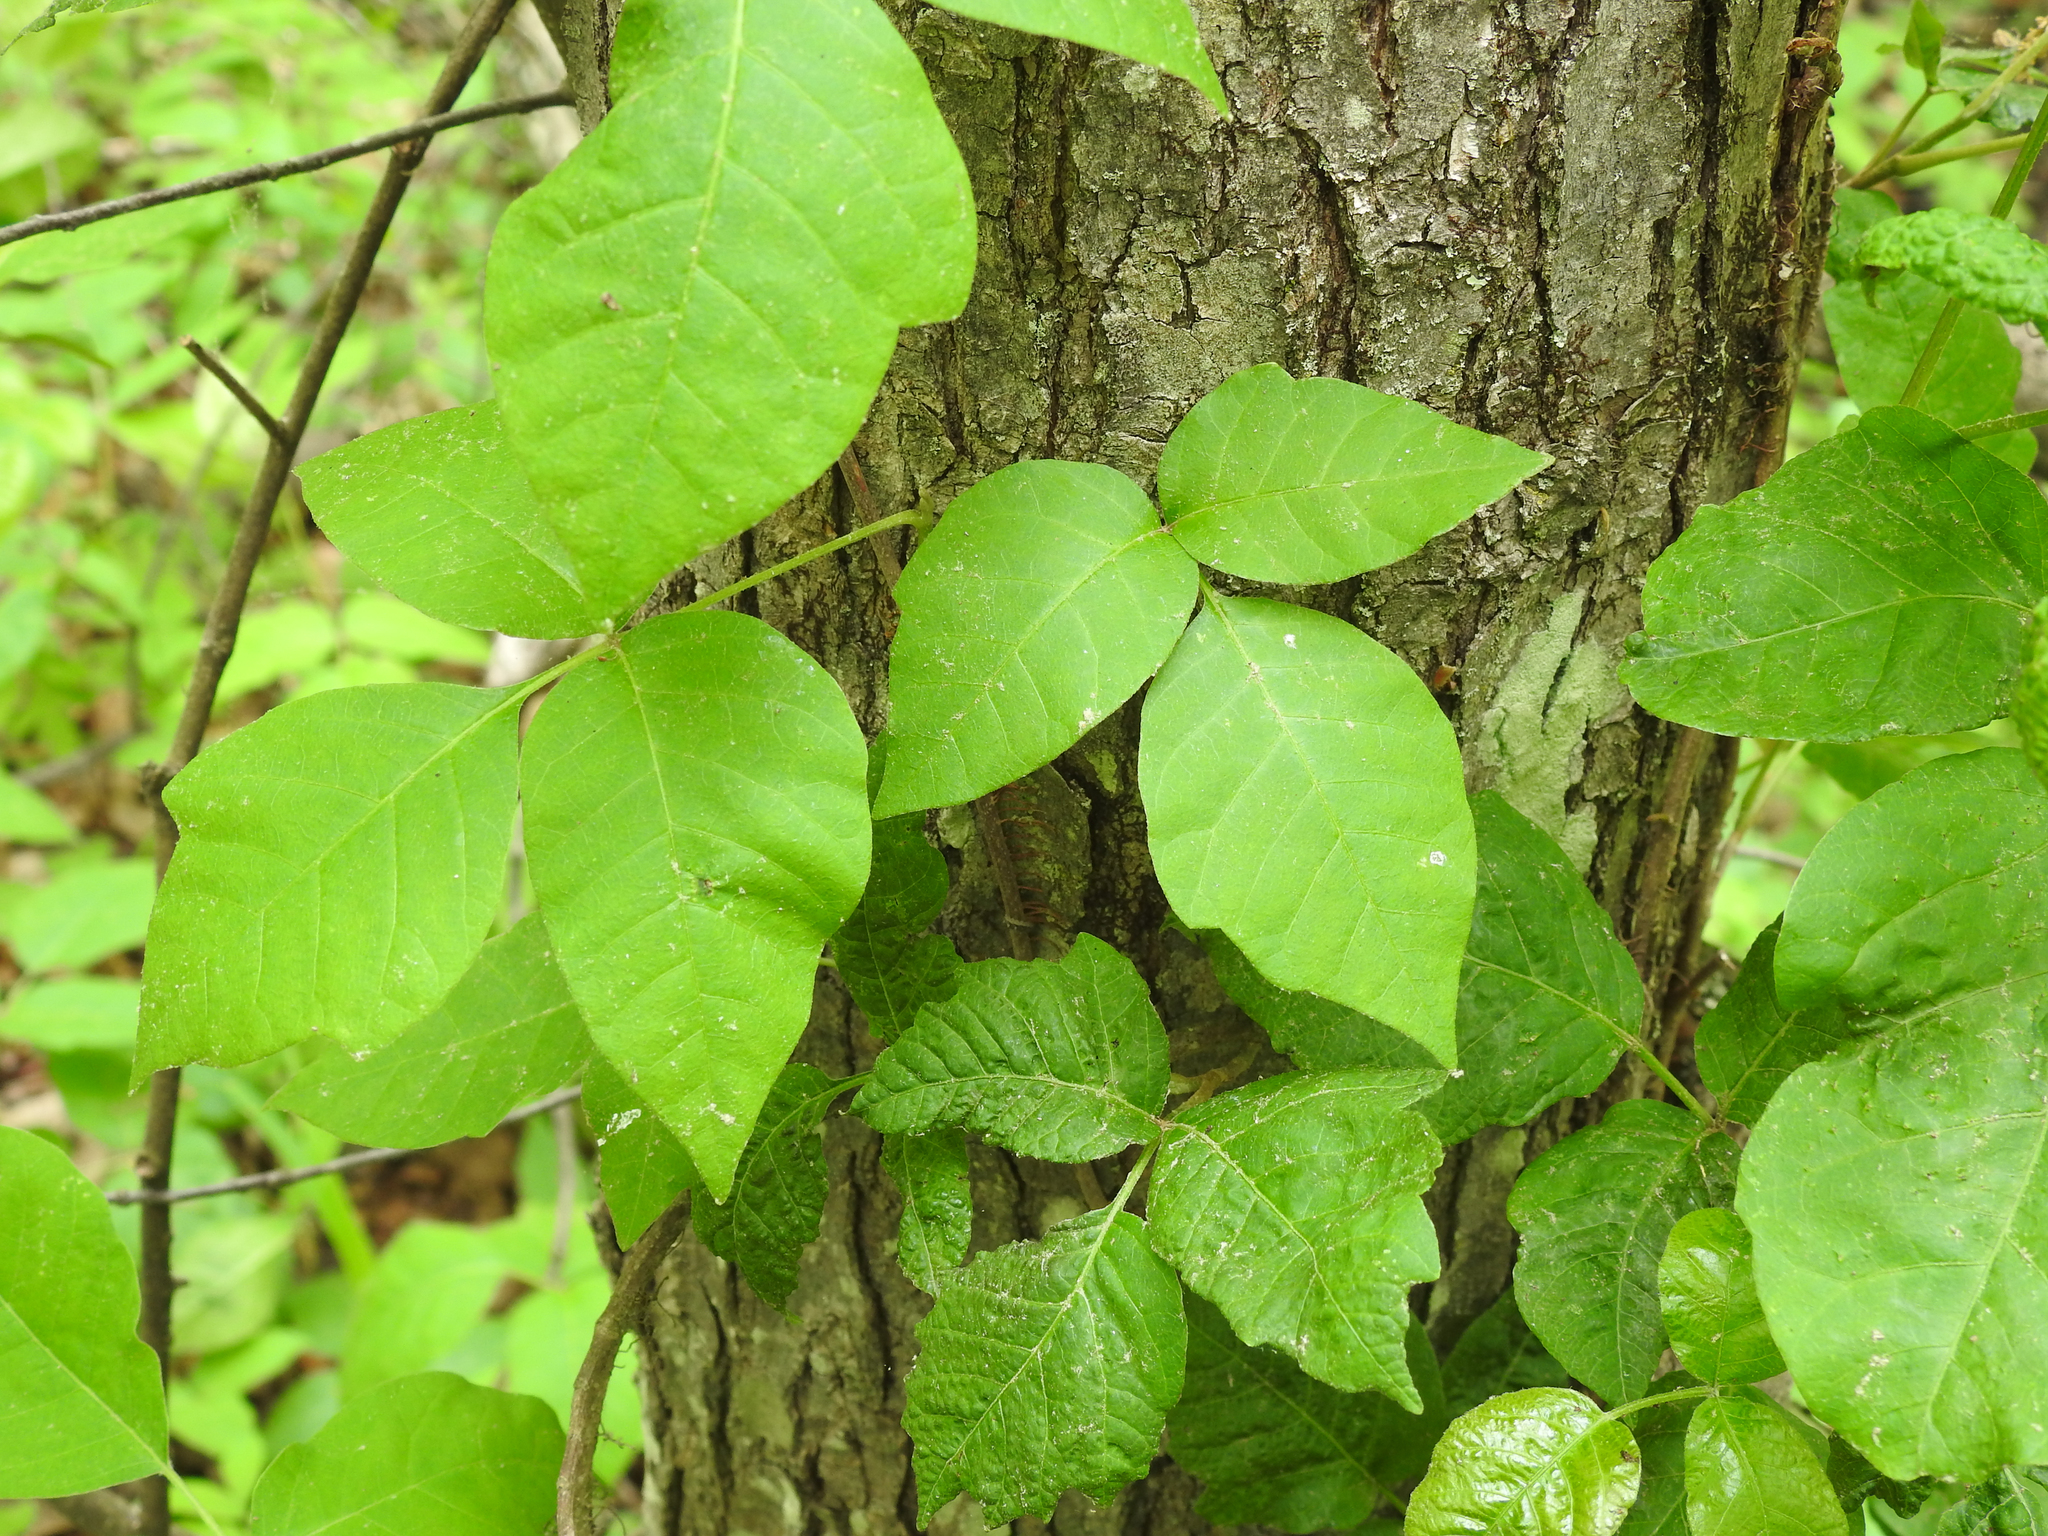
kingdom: Plantae
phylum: Tracheophyta
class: Magnoliopsida
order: Sapindales
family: Anacardiaceae
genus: Toxicodendron
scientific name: Toxicodendron radicans
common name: Poison ivy
